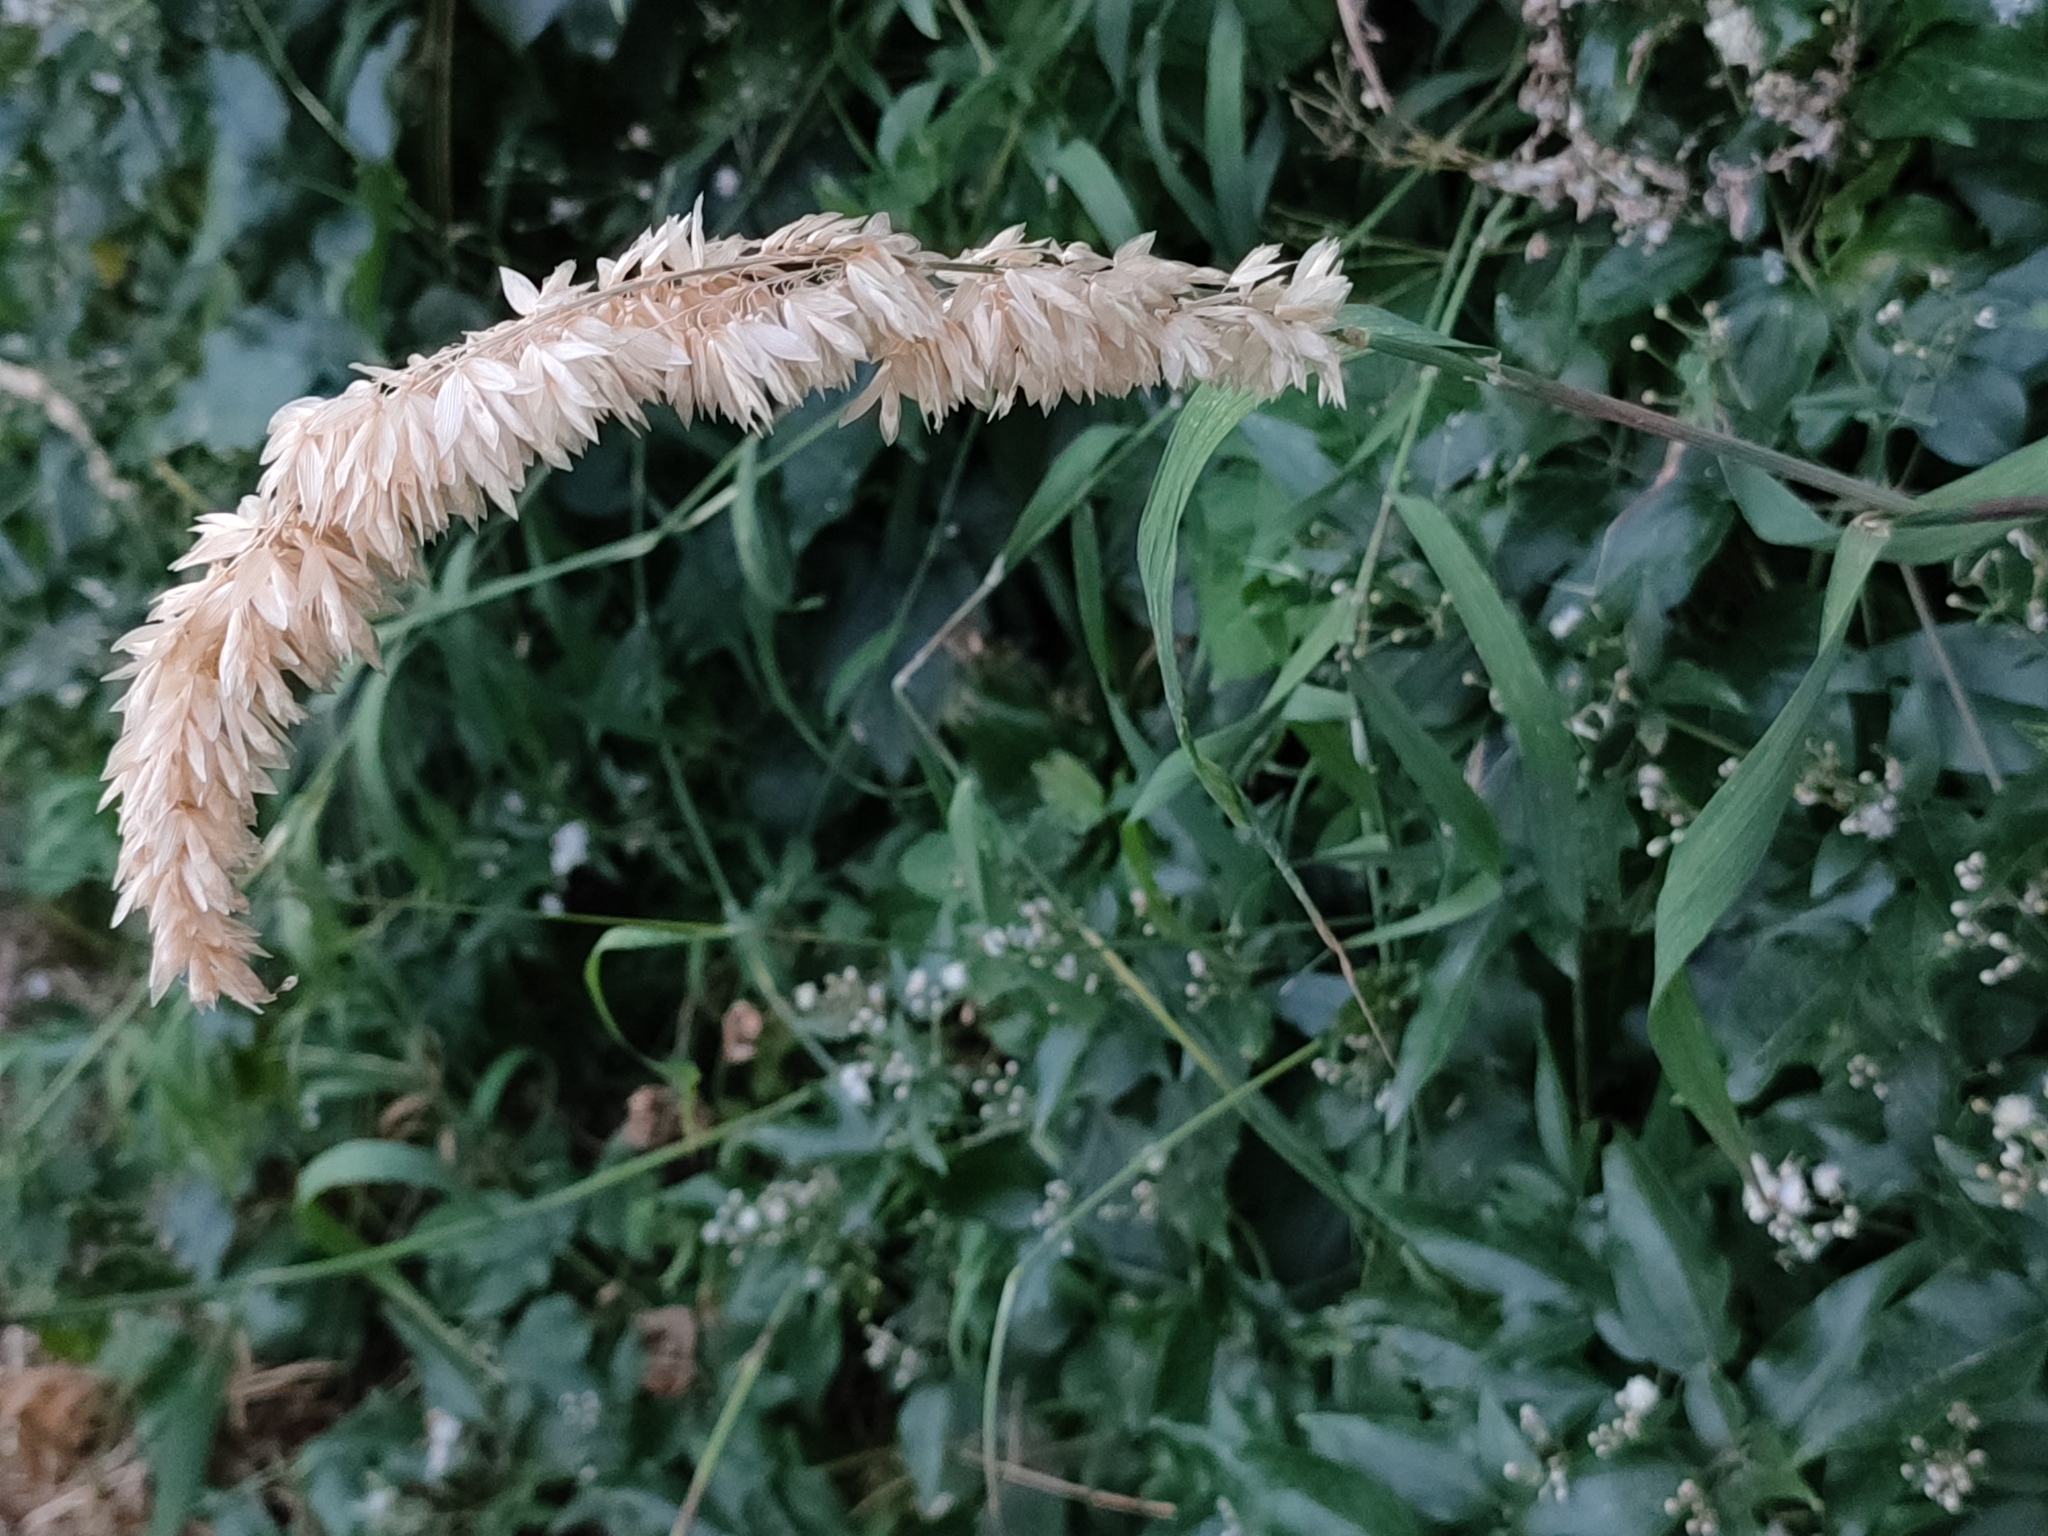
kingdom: Plantae
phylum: Tracheophyta
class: Liliopsida
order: Poales
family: Poaceae
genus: Melica
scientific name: Melica altissima
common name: Siberian melicgrass
